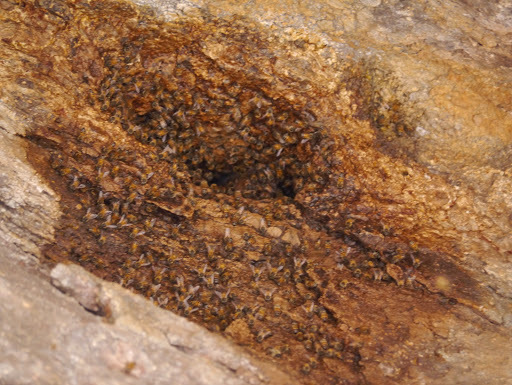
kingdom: Animalia
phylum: Arthropoda
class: Insecta
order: Hymenoptera
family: Apidae
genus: Apis
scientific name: Apis mellifera
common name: Honey bee
